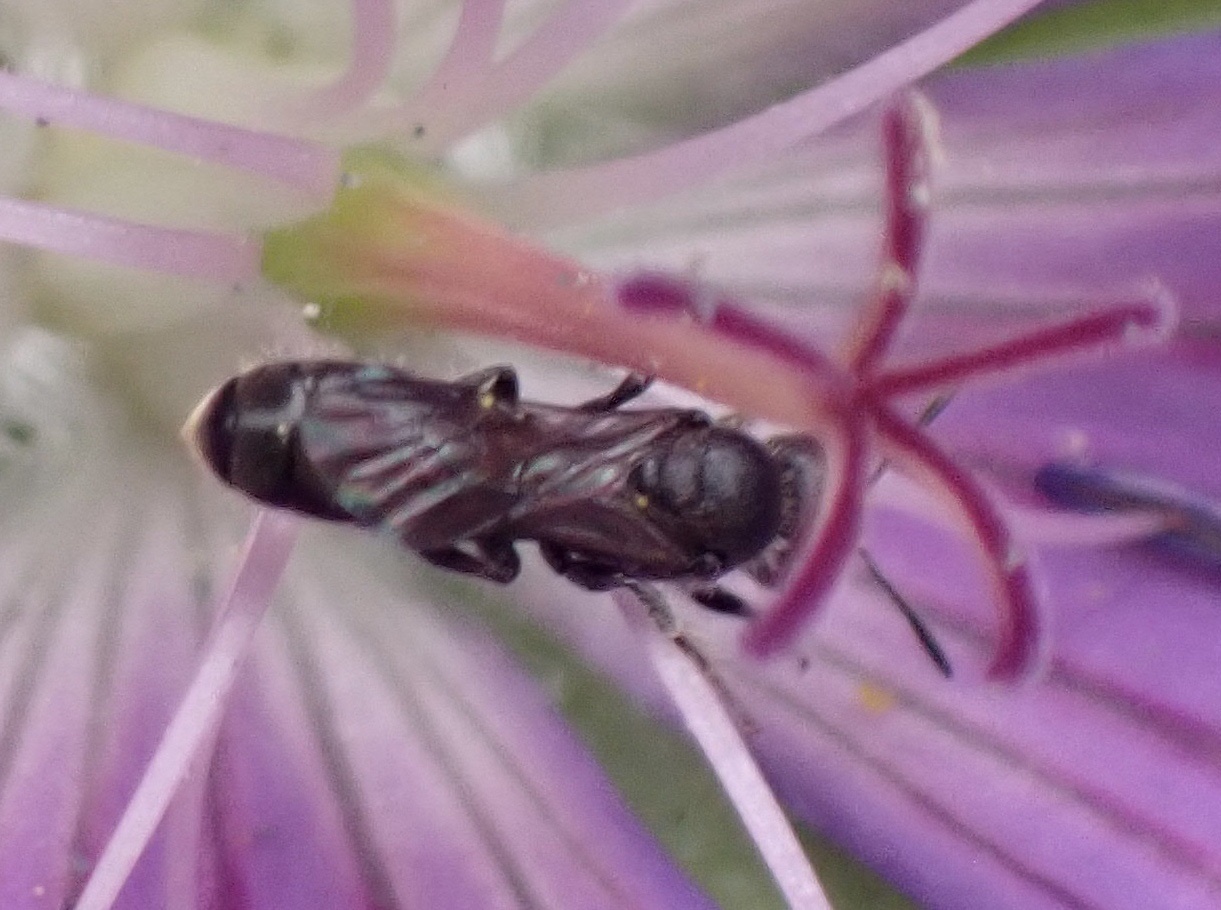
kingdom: Animalia
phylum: Arthropoda
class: Insecta
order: Hymenoptera
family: Megachilidae
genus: Chelostoma
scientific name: Chelostoma campanularum
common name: Small scissor bee
